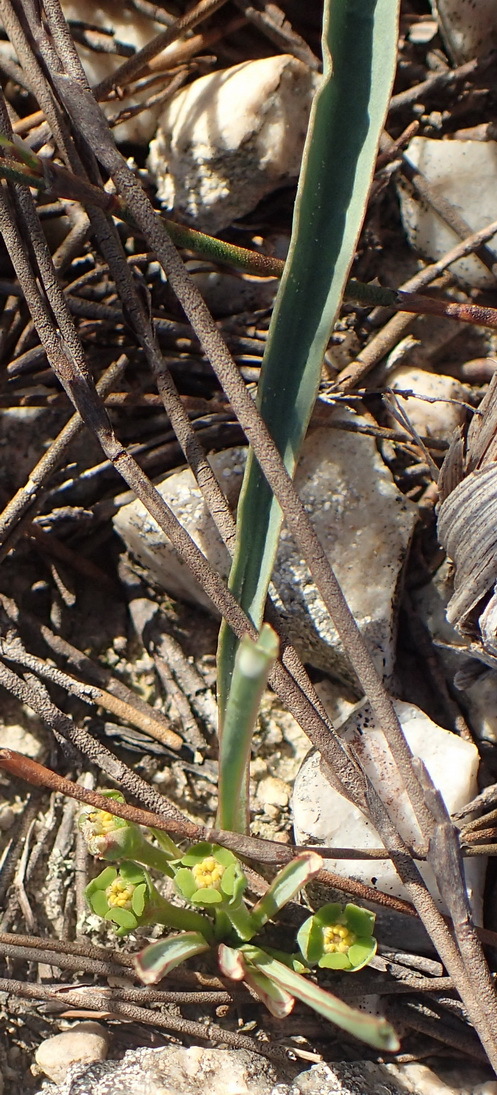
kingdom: Plantae
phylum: Tracheophyta
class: Magnoliopsida
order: Malpighiales
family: Euphorbiaceae
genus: Euphorbia
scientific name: Euphorbia silenifolia
